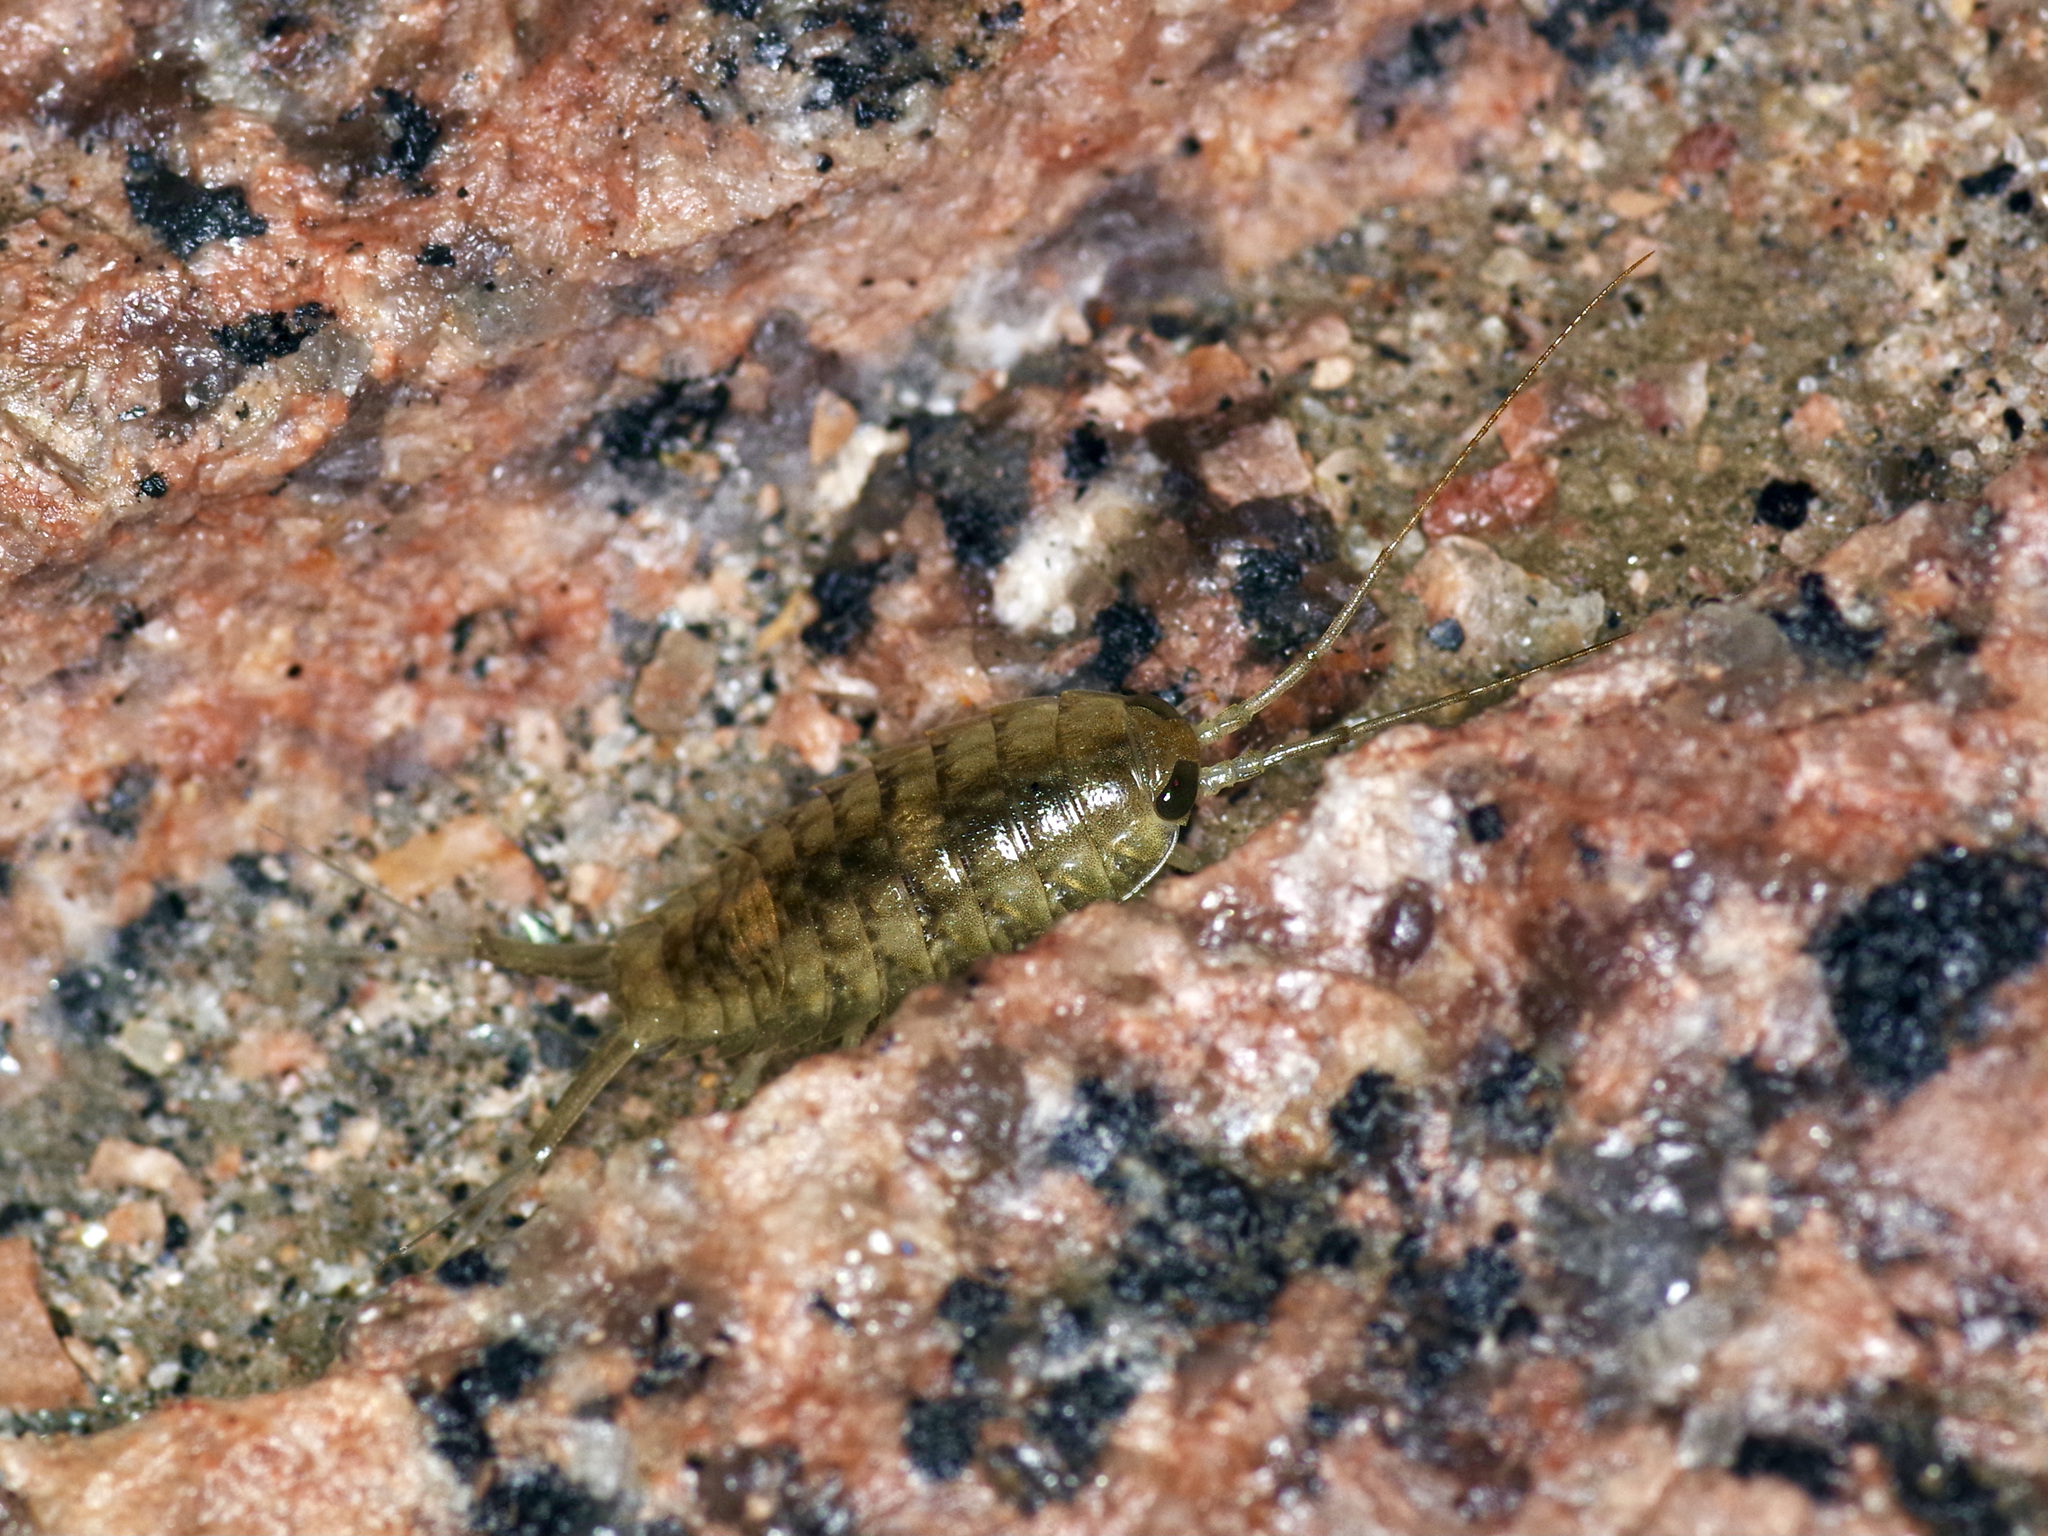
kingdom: Animalia
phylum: Arthropoda
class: Malacostraca
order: Isopoda
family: Ligiidae
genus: Ligia
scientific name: Ligia exotica
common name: Wharf roach
